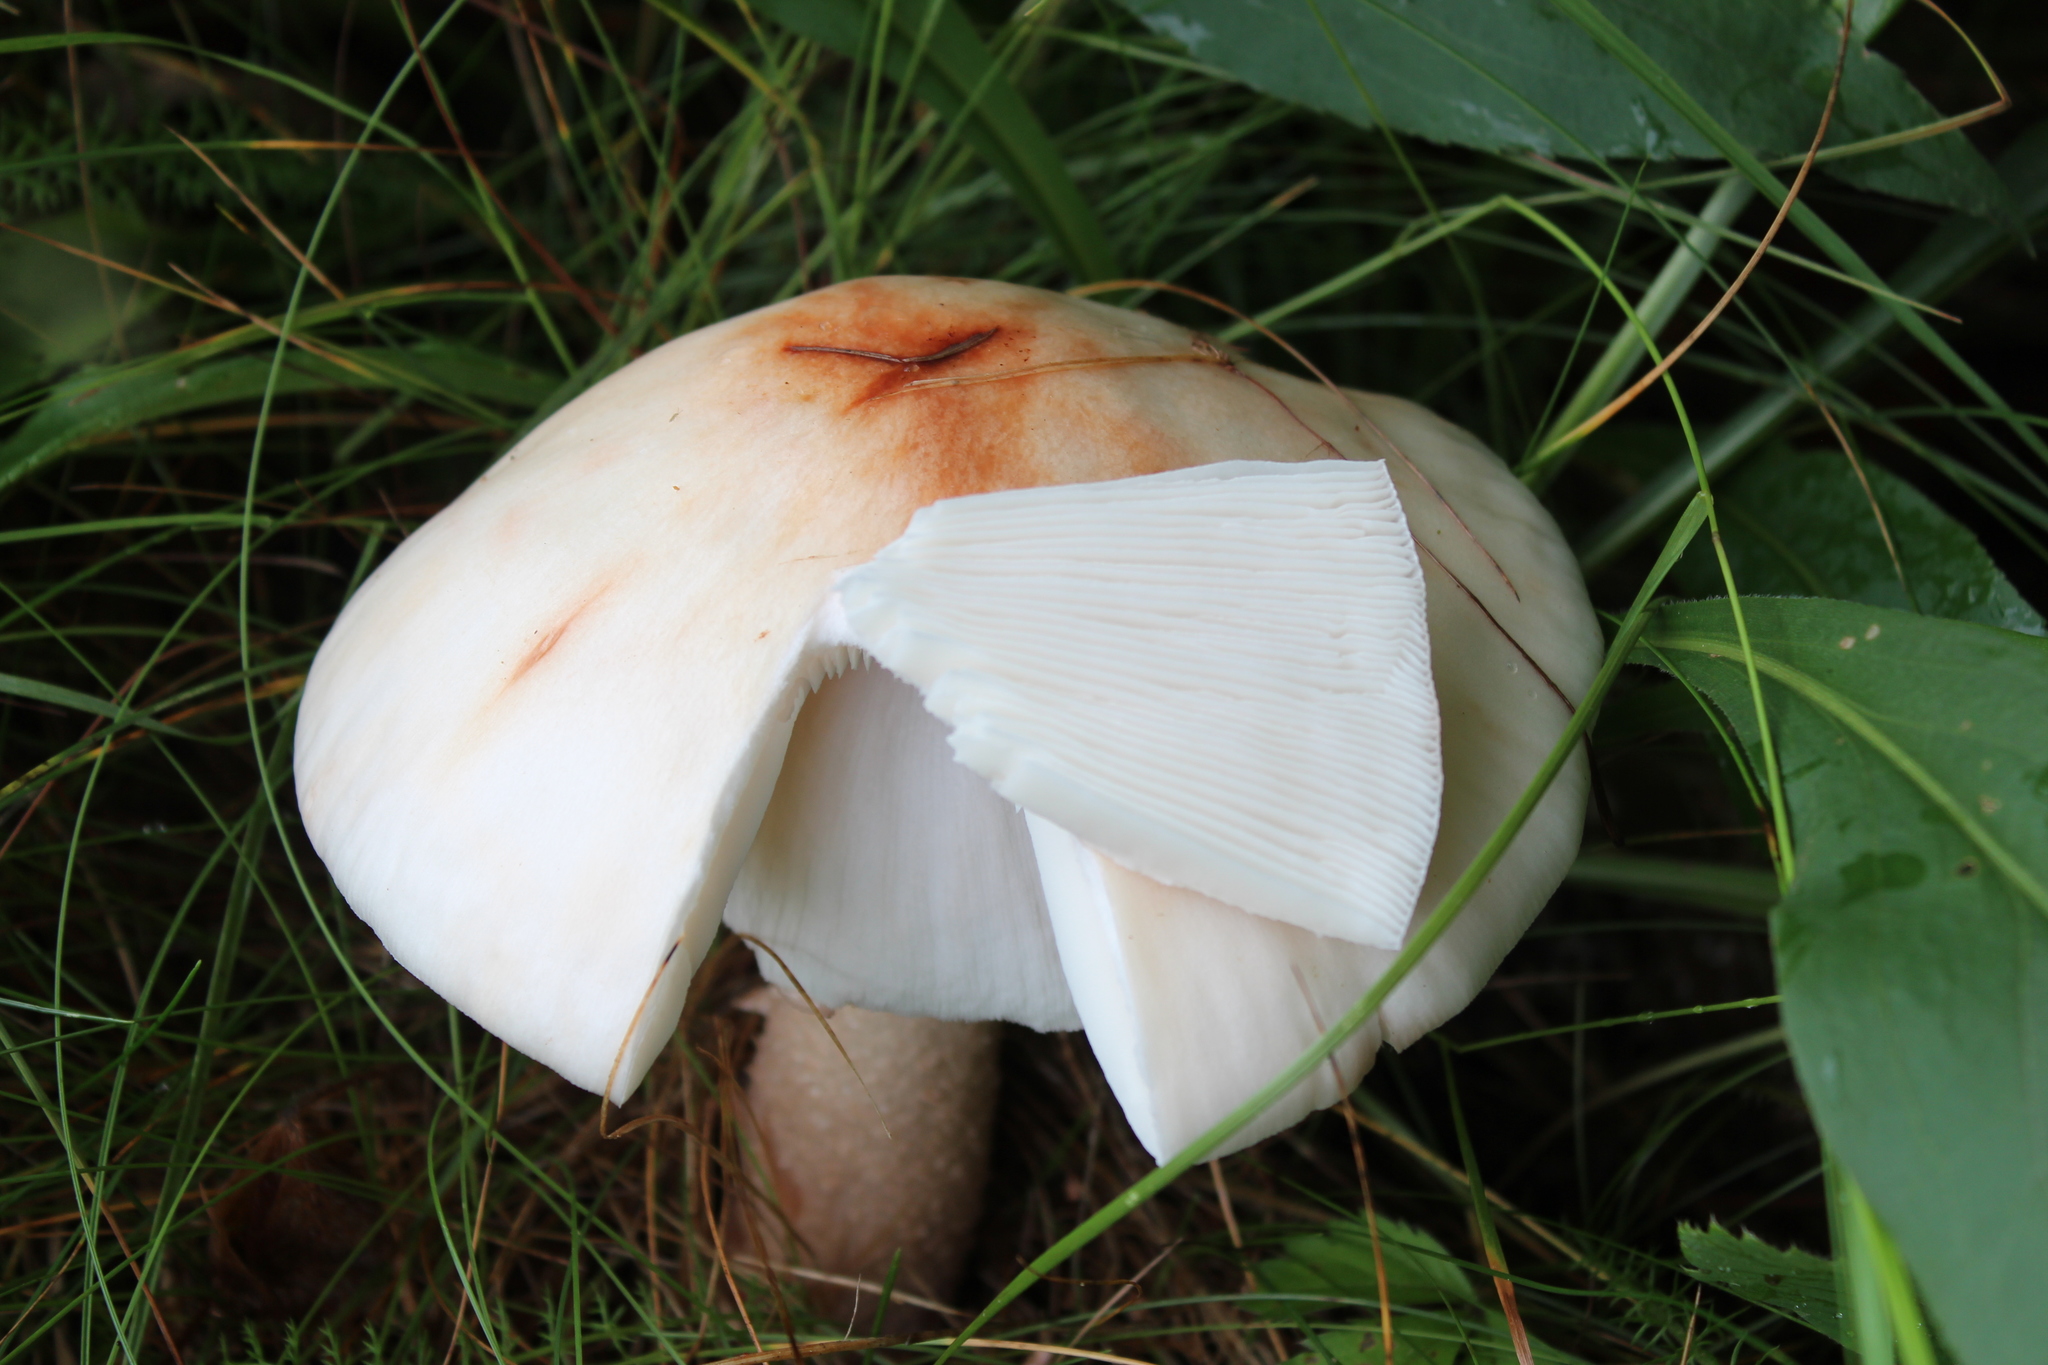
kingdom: Fungi
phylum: Basidiomycota
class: Agaricomycetes
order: Agaricales
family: Amanitaceae
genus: Amanita
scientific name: Amanita rubescens
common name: Blusher
